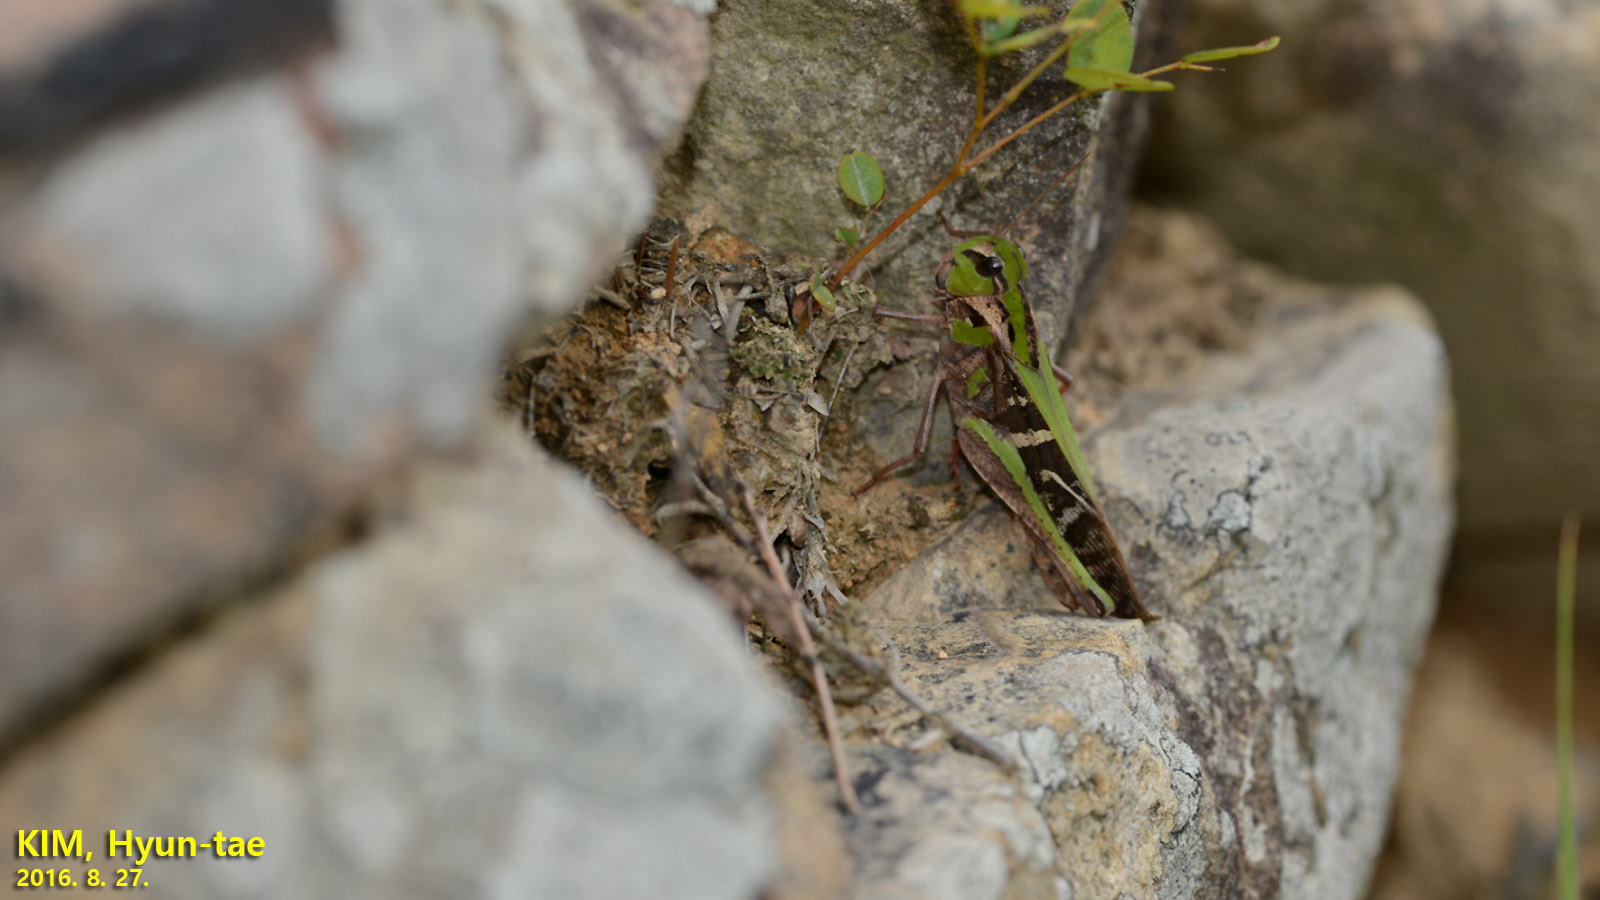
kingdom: Animalia
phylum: Arthropoda
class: Insecta
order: Orthoptera
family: Acrididae
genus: Gastrimargus
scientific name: Gastrimargus marmoratus
